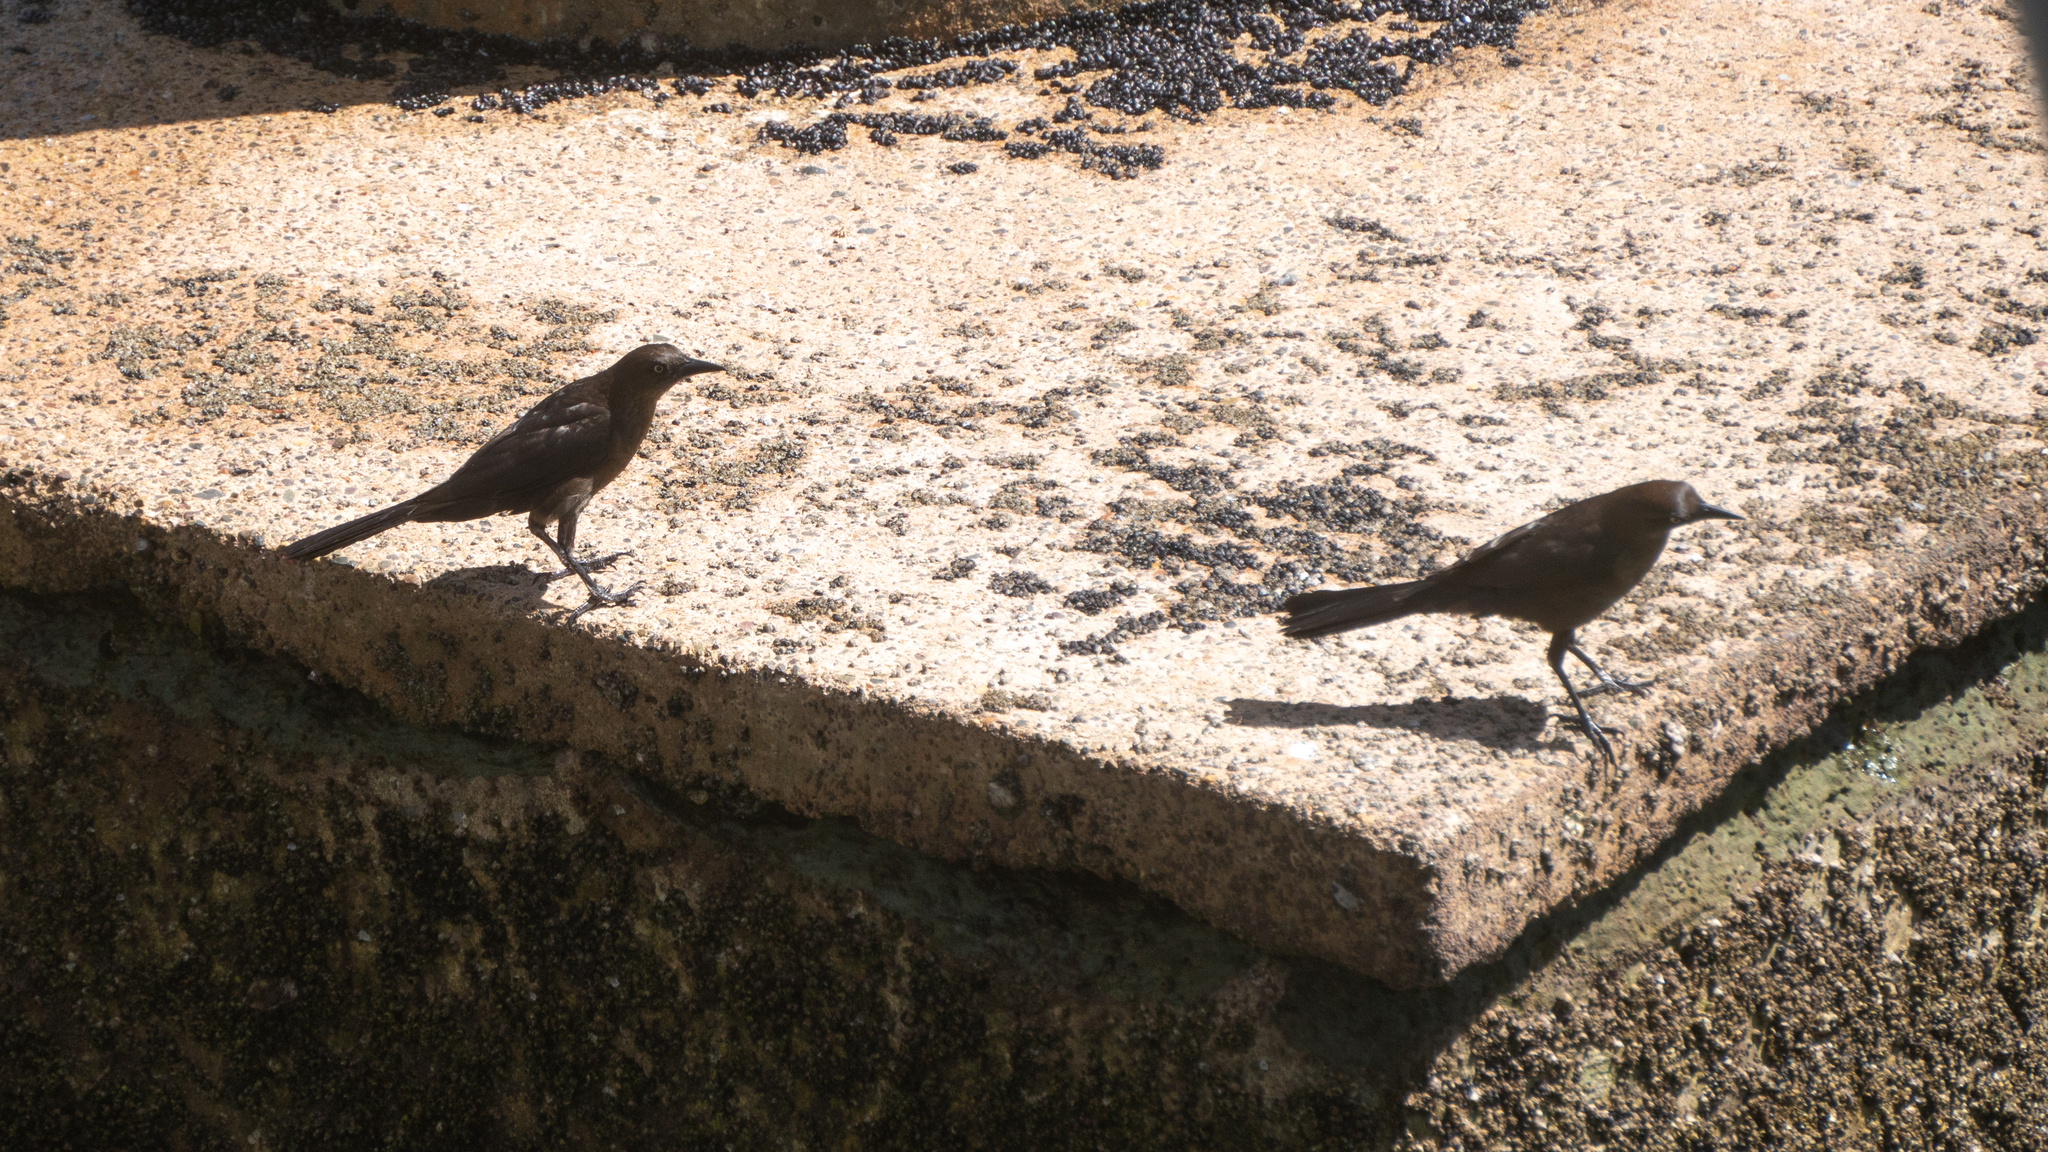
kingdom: Animalia
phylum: Chordata
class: Aves
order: Passeriformes
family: Icteridae
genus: Quiscalus
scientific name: Quiscalus mexicanus
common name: Great-tailed grackle
